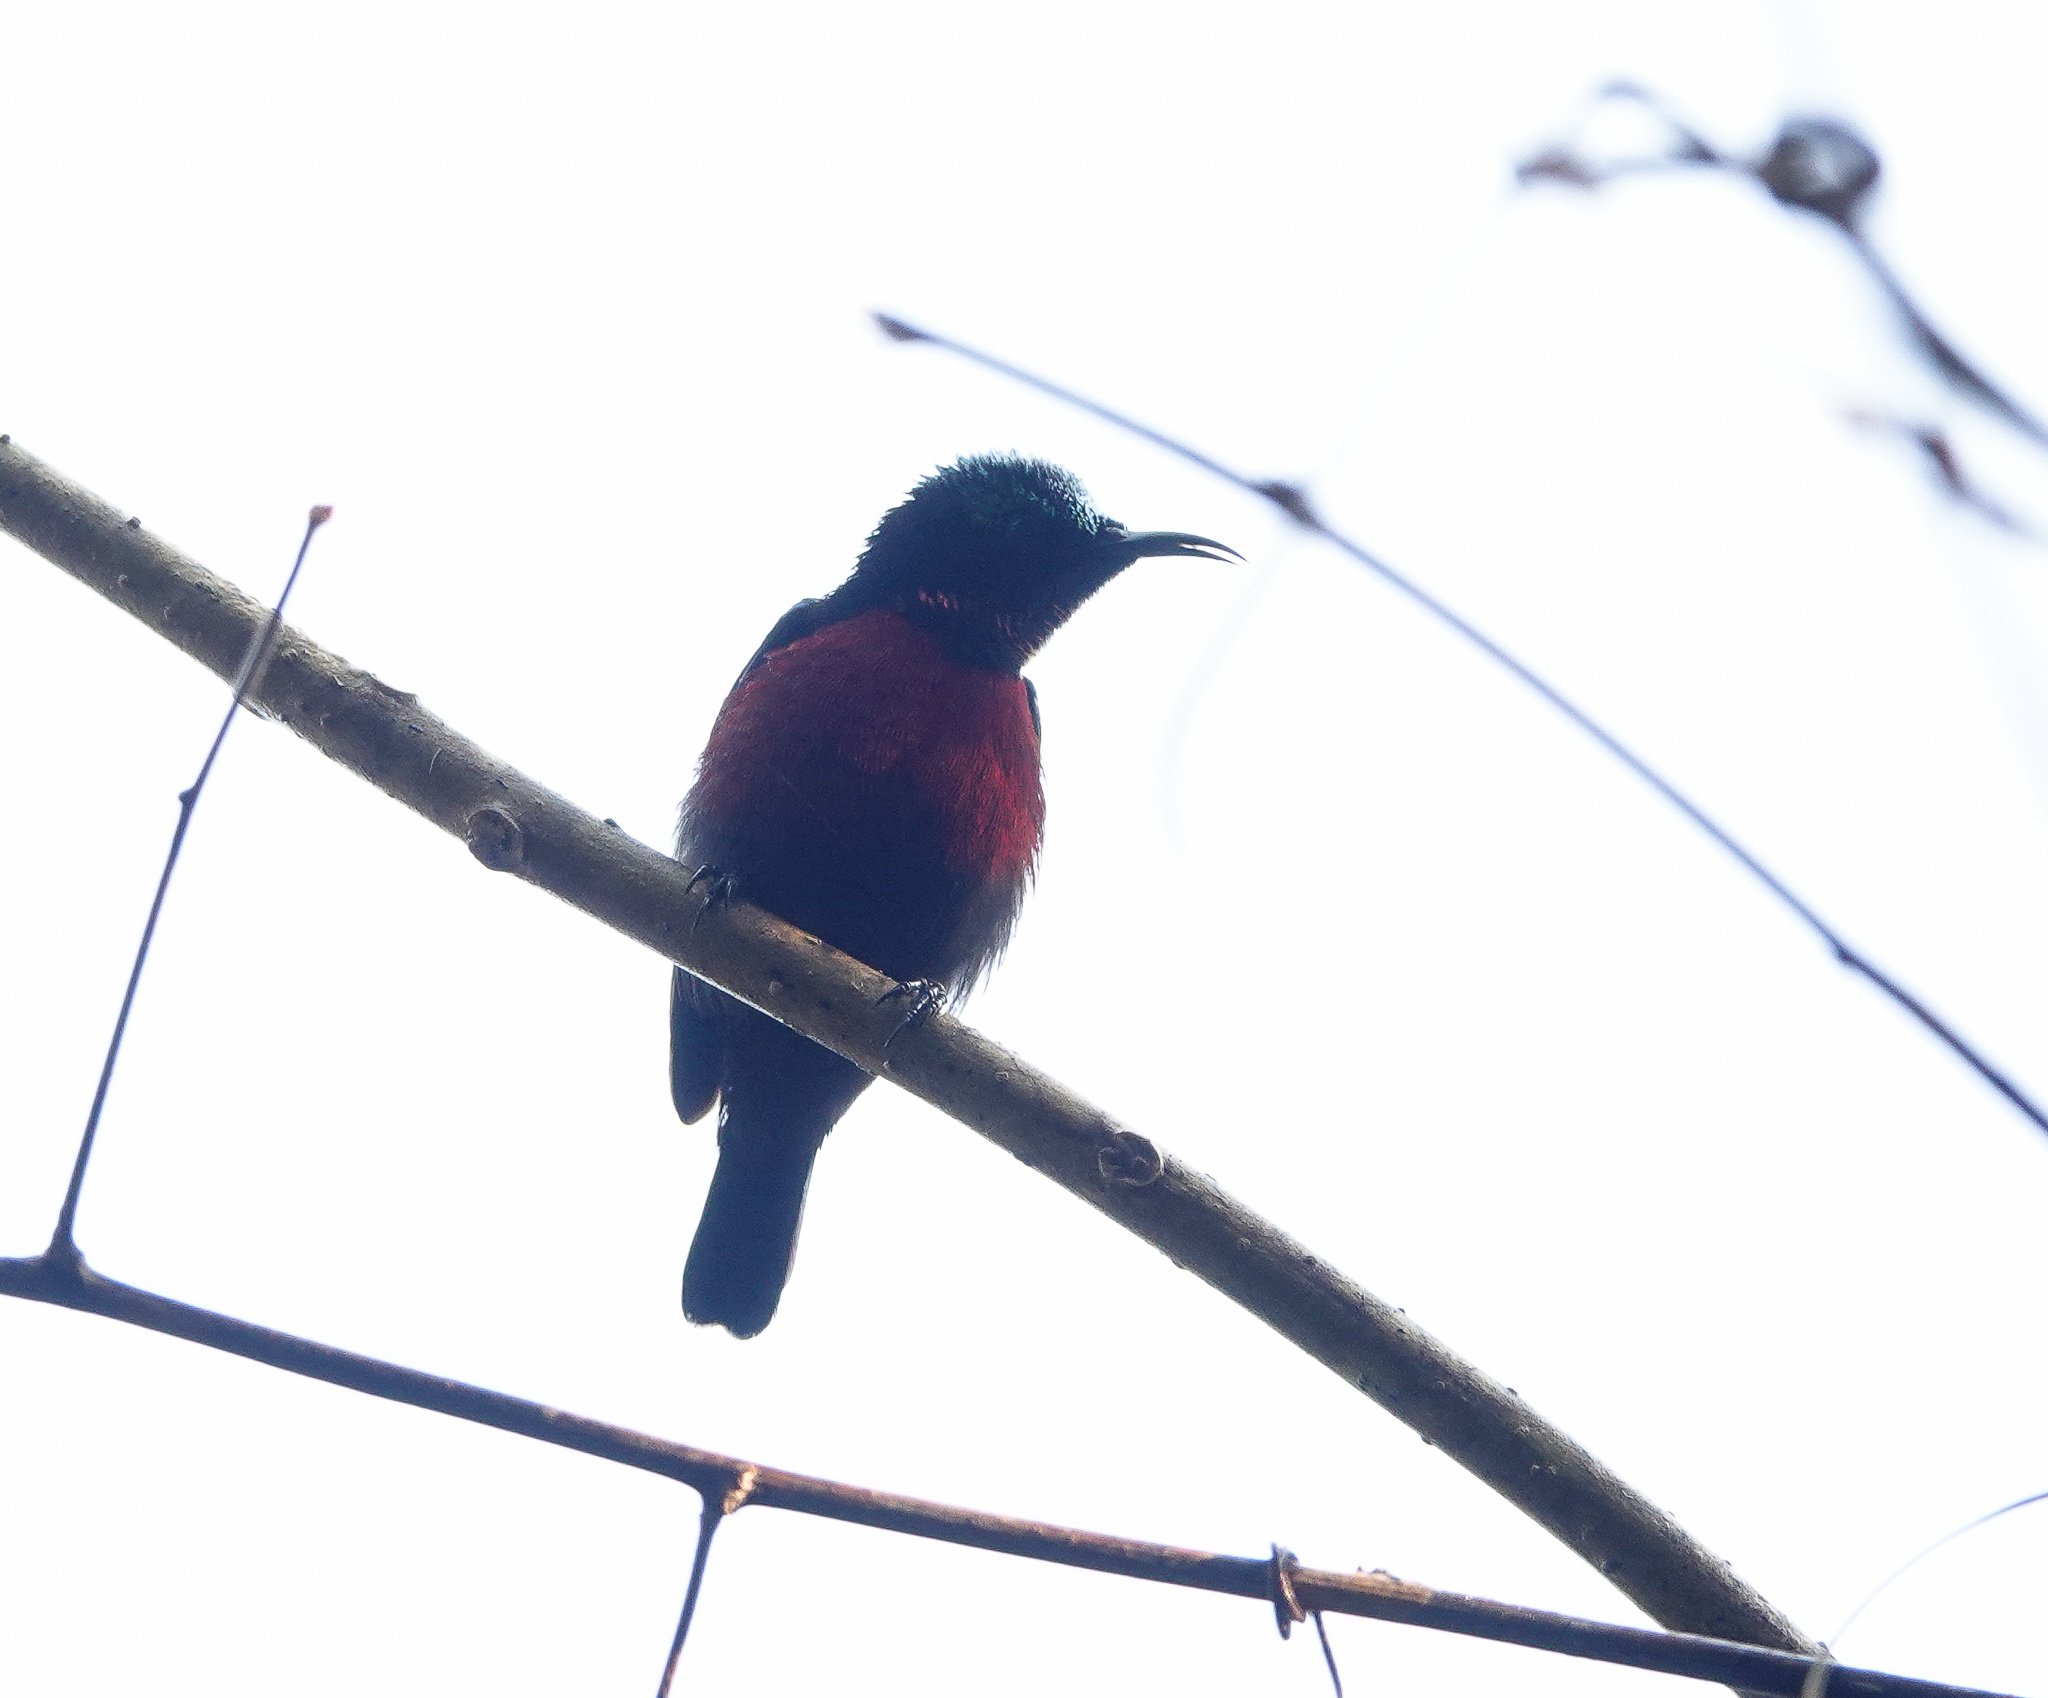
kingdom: Animalia
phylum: Chordata
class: Aves
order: Passeriformes
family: Nectariniidae
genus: Leptocoma
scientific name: Leptocoma brasiliana
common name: Van hasselt's sunbird
